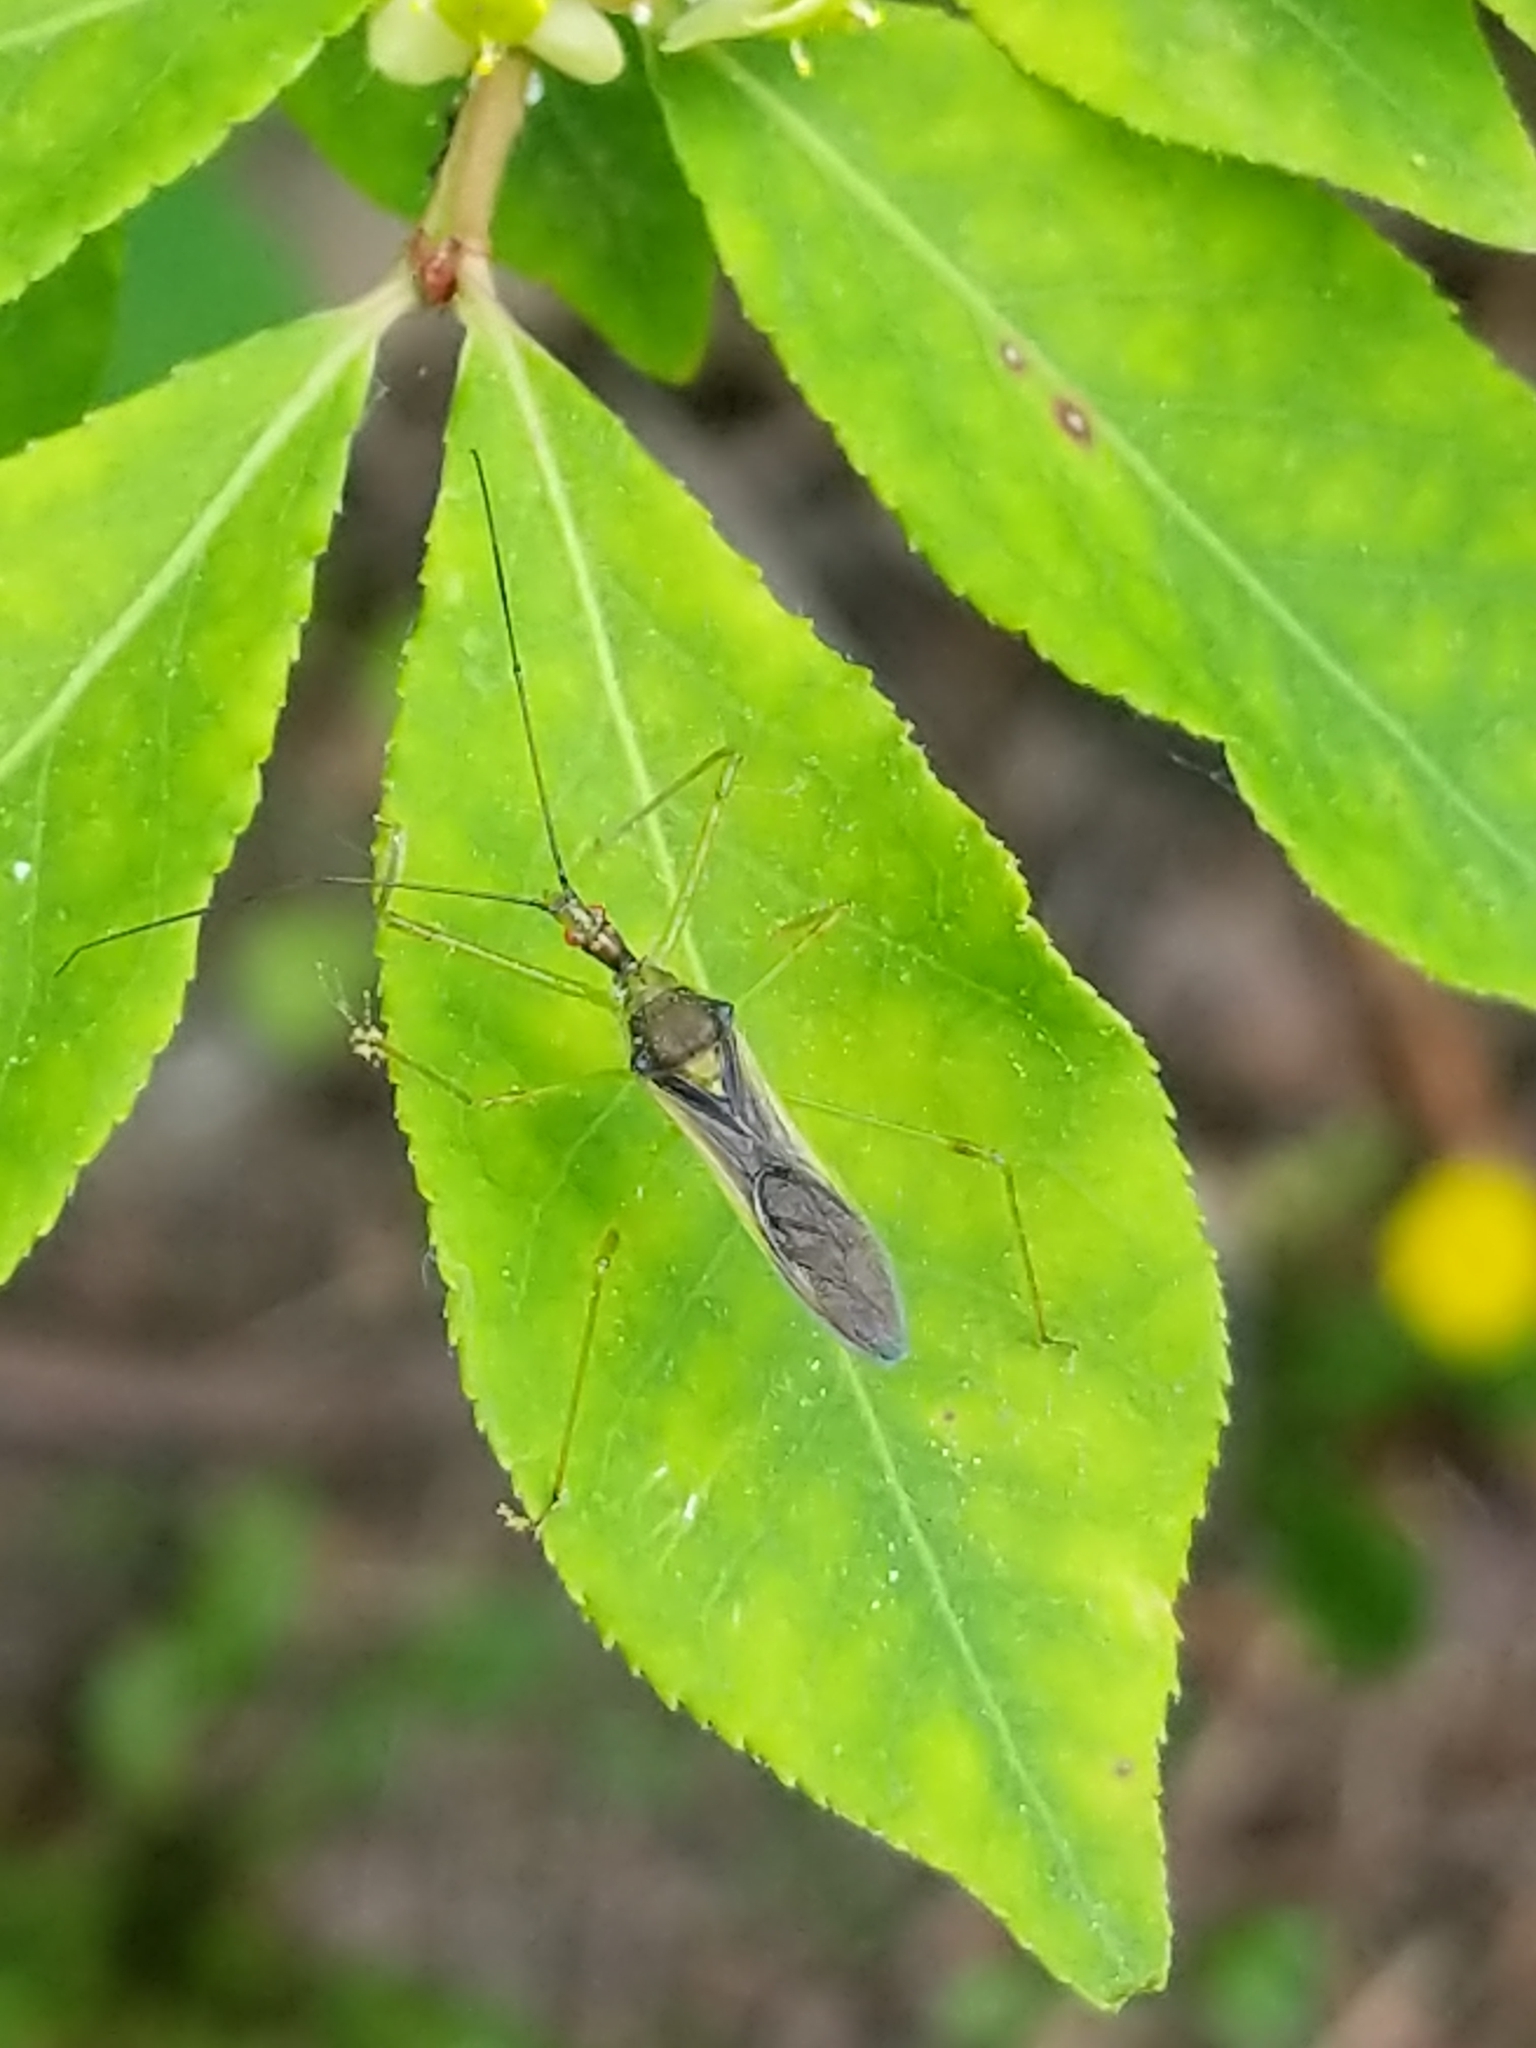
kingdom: Animalia
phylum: Arthropoda
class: Insecta
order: Hemiptera
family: Reduviidae
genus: Zelus
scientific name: Zelus luridus
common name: Pale green assassin bug
